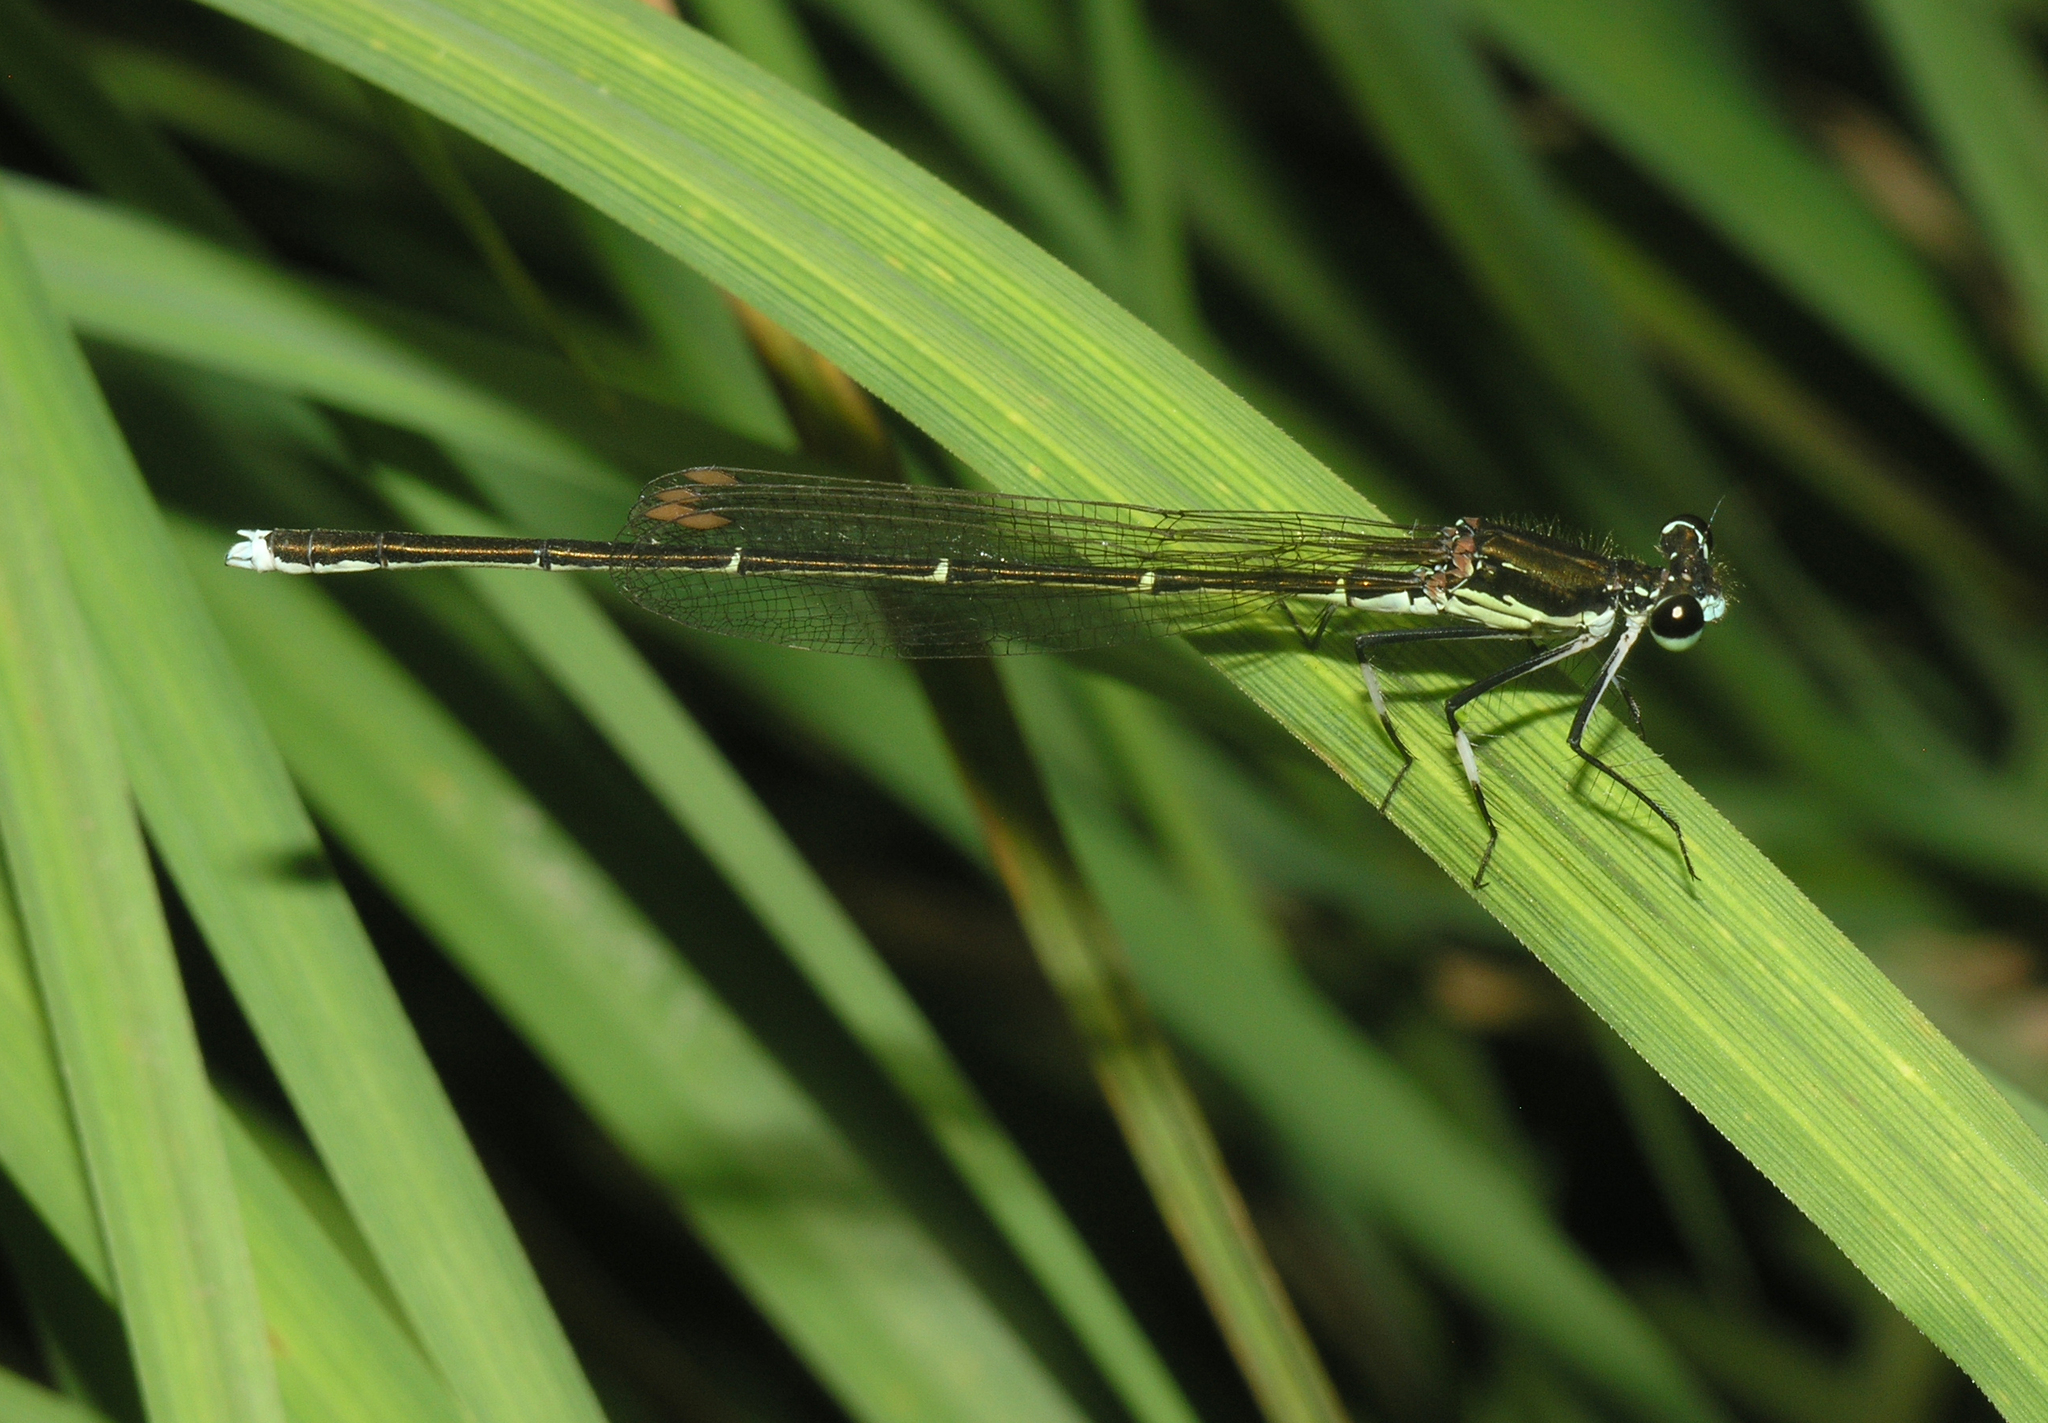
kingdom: Animalia
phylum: Arthropoda
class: Insecta
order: Odonata
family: Platycnemididae
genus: Pseudocopera
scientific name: Pseudocopera rubripes
